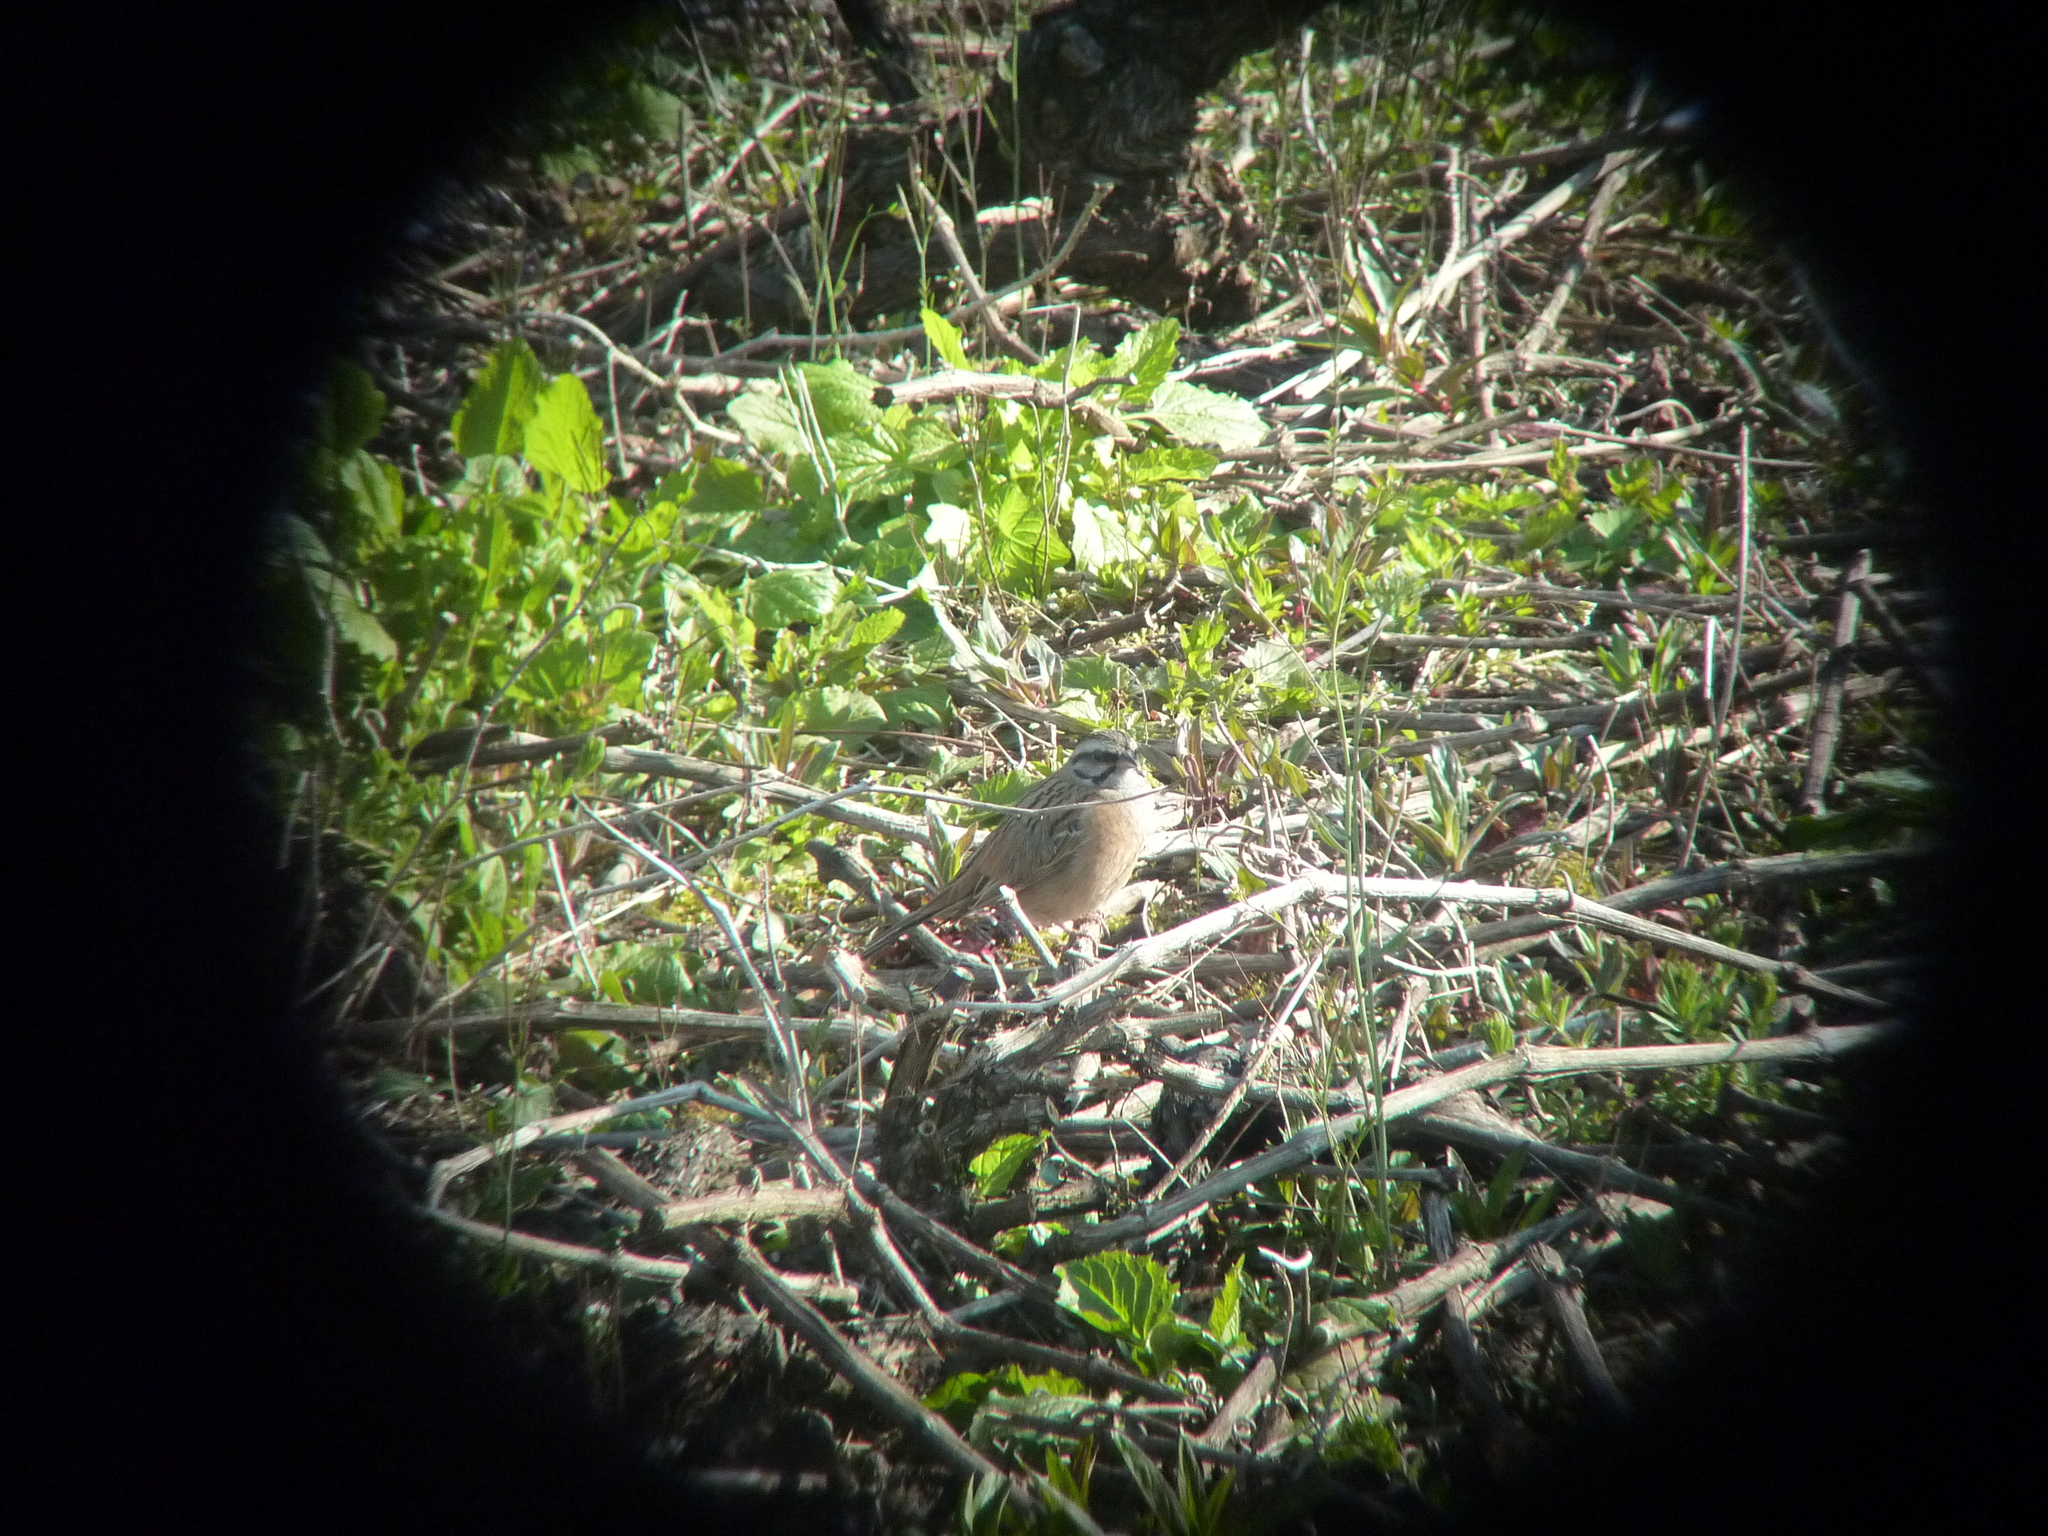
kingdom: Animalia
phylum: Chordata
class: Aves
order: Passeriformes
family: Emberizidae
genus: Emberiza
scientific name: Emberiza cia
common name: Rock bunting
